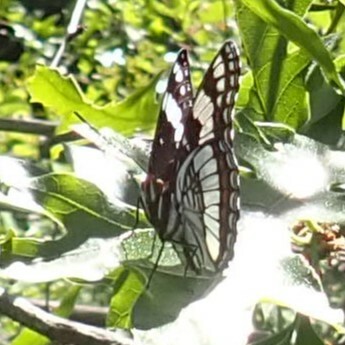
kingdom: Animalia
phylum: Arthropoda
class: Insecta
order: Lepidoptera
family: Nymphalidae
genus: Limenitis
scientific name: Limenitis weidemeyerii
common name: Weidemeyer's admiral
